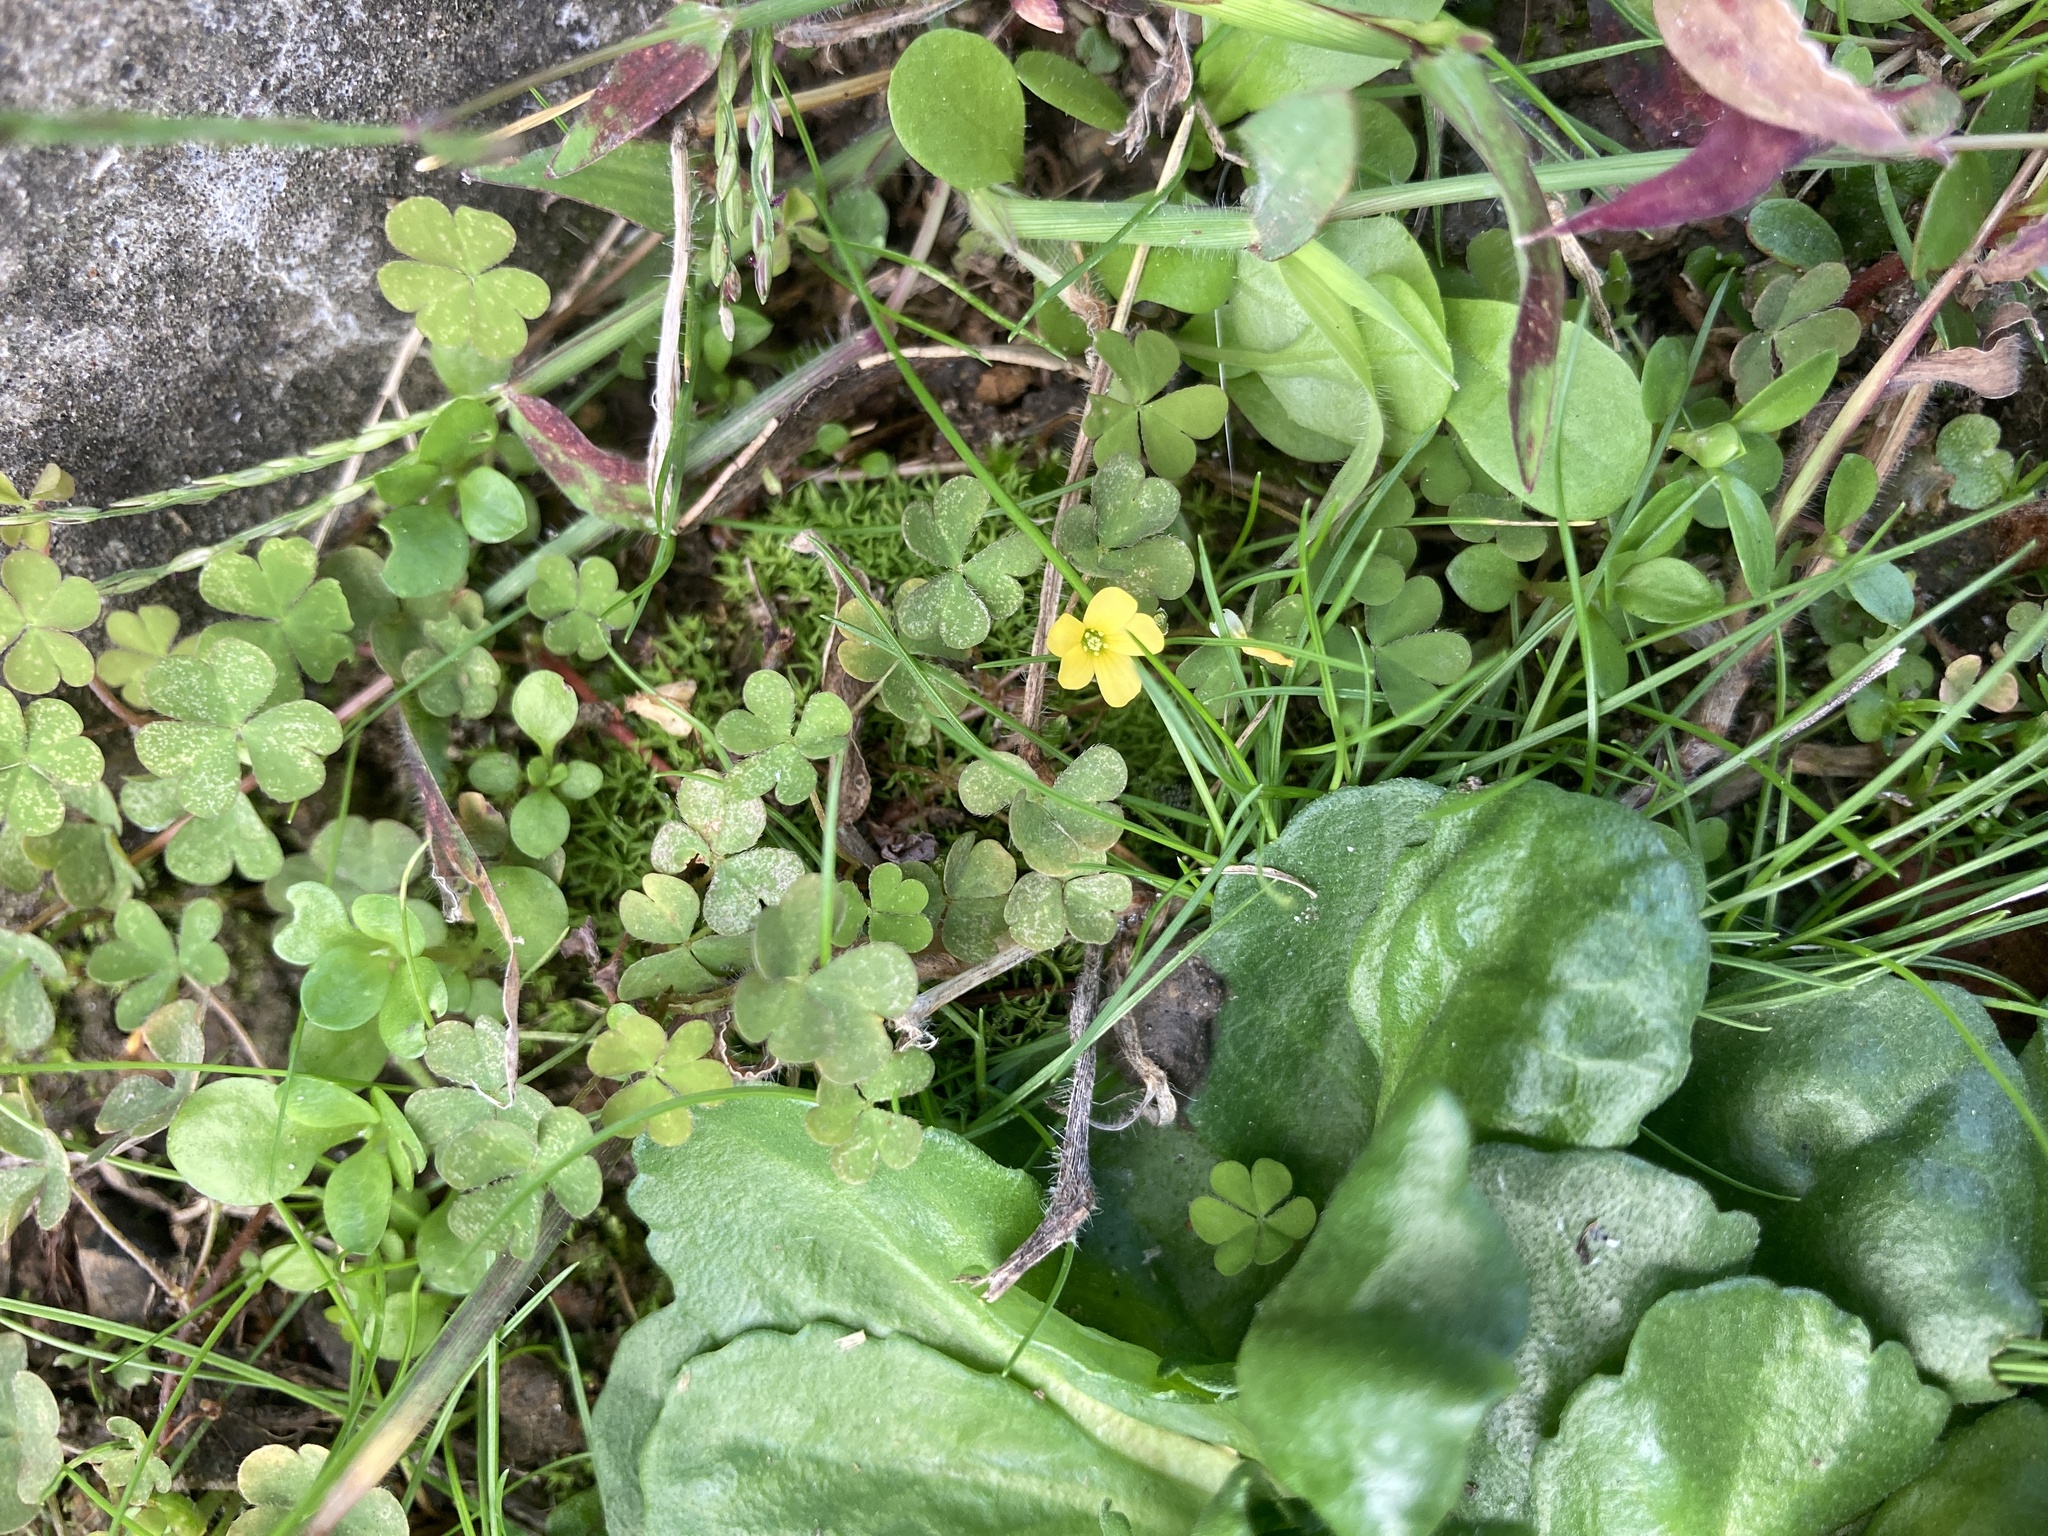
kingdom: Plantae
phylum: Tracheophyta
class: Magnoliopsida
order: Oxalidales
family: Oxalidaceae
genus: Oxalis
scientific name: Oxalis exilis
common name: Least yellow-sorrel
